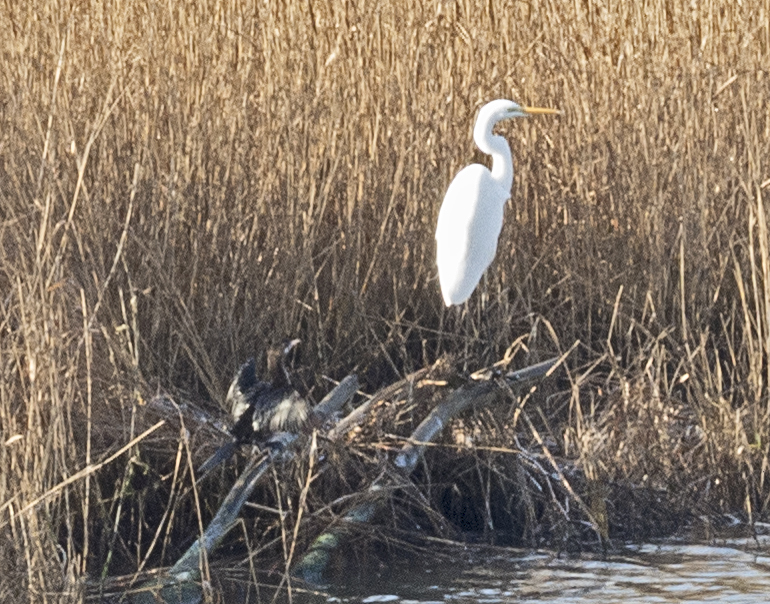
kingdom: Animalia
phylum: Chordata
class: Aves
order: Pelecaniformes
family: Ardeidae
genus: Ardea
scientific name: Ardea alba
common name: Great egret
